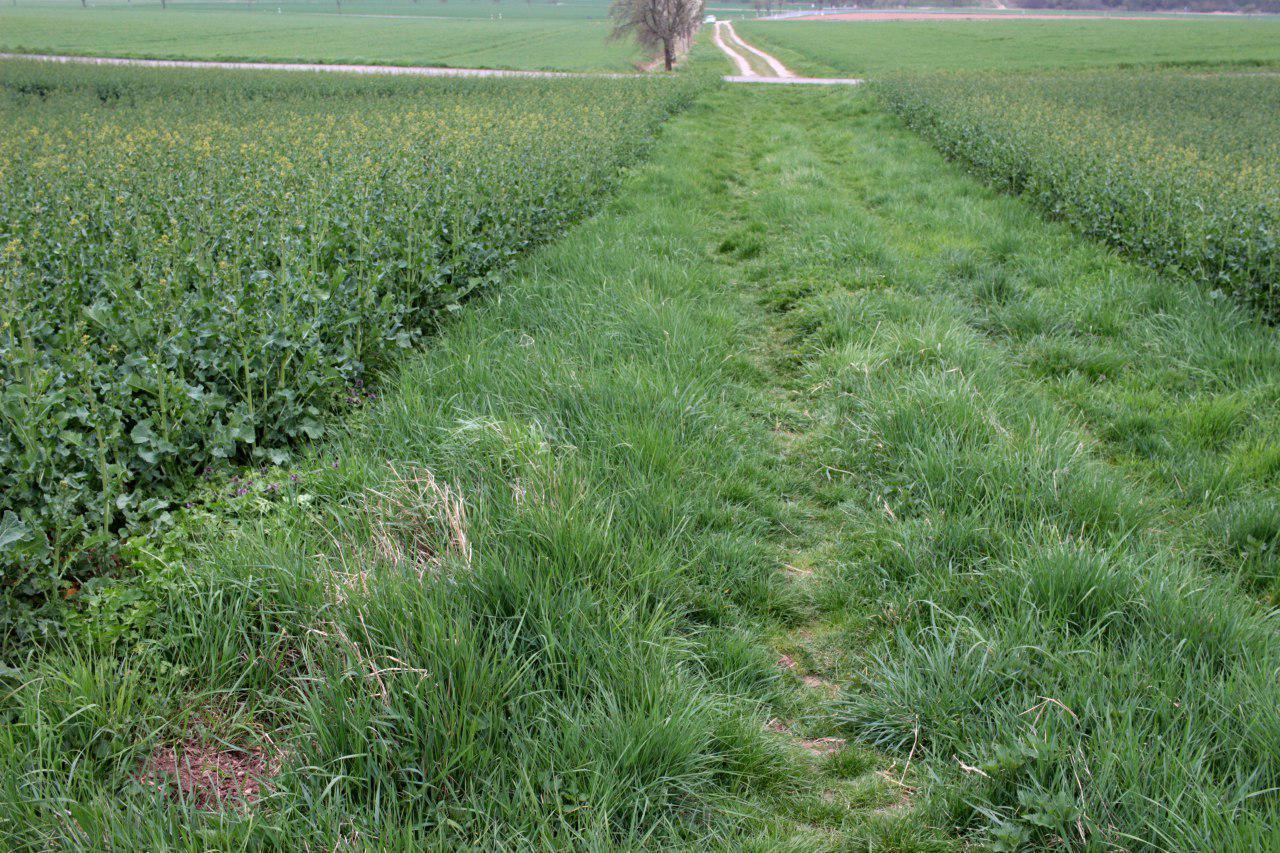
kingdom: Animalia
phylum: Chordata
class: Squamata
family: Lacertidae
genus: Lacerta
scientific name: Lacerta agilis
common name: Sand lizard
